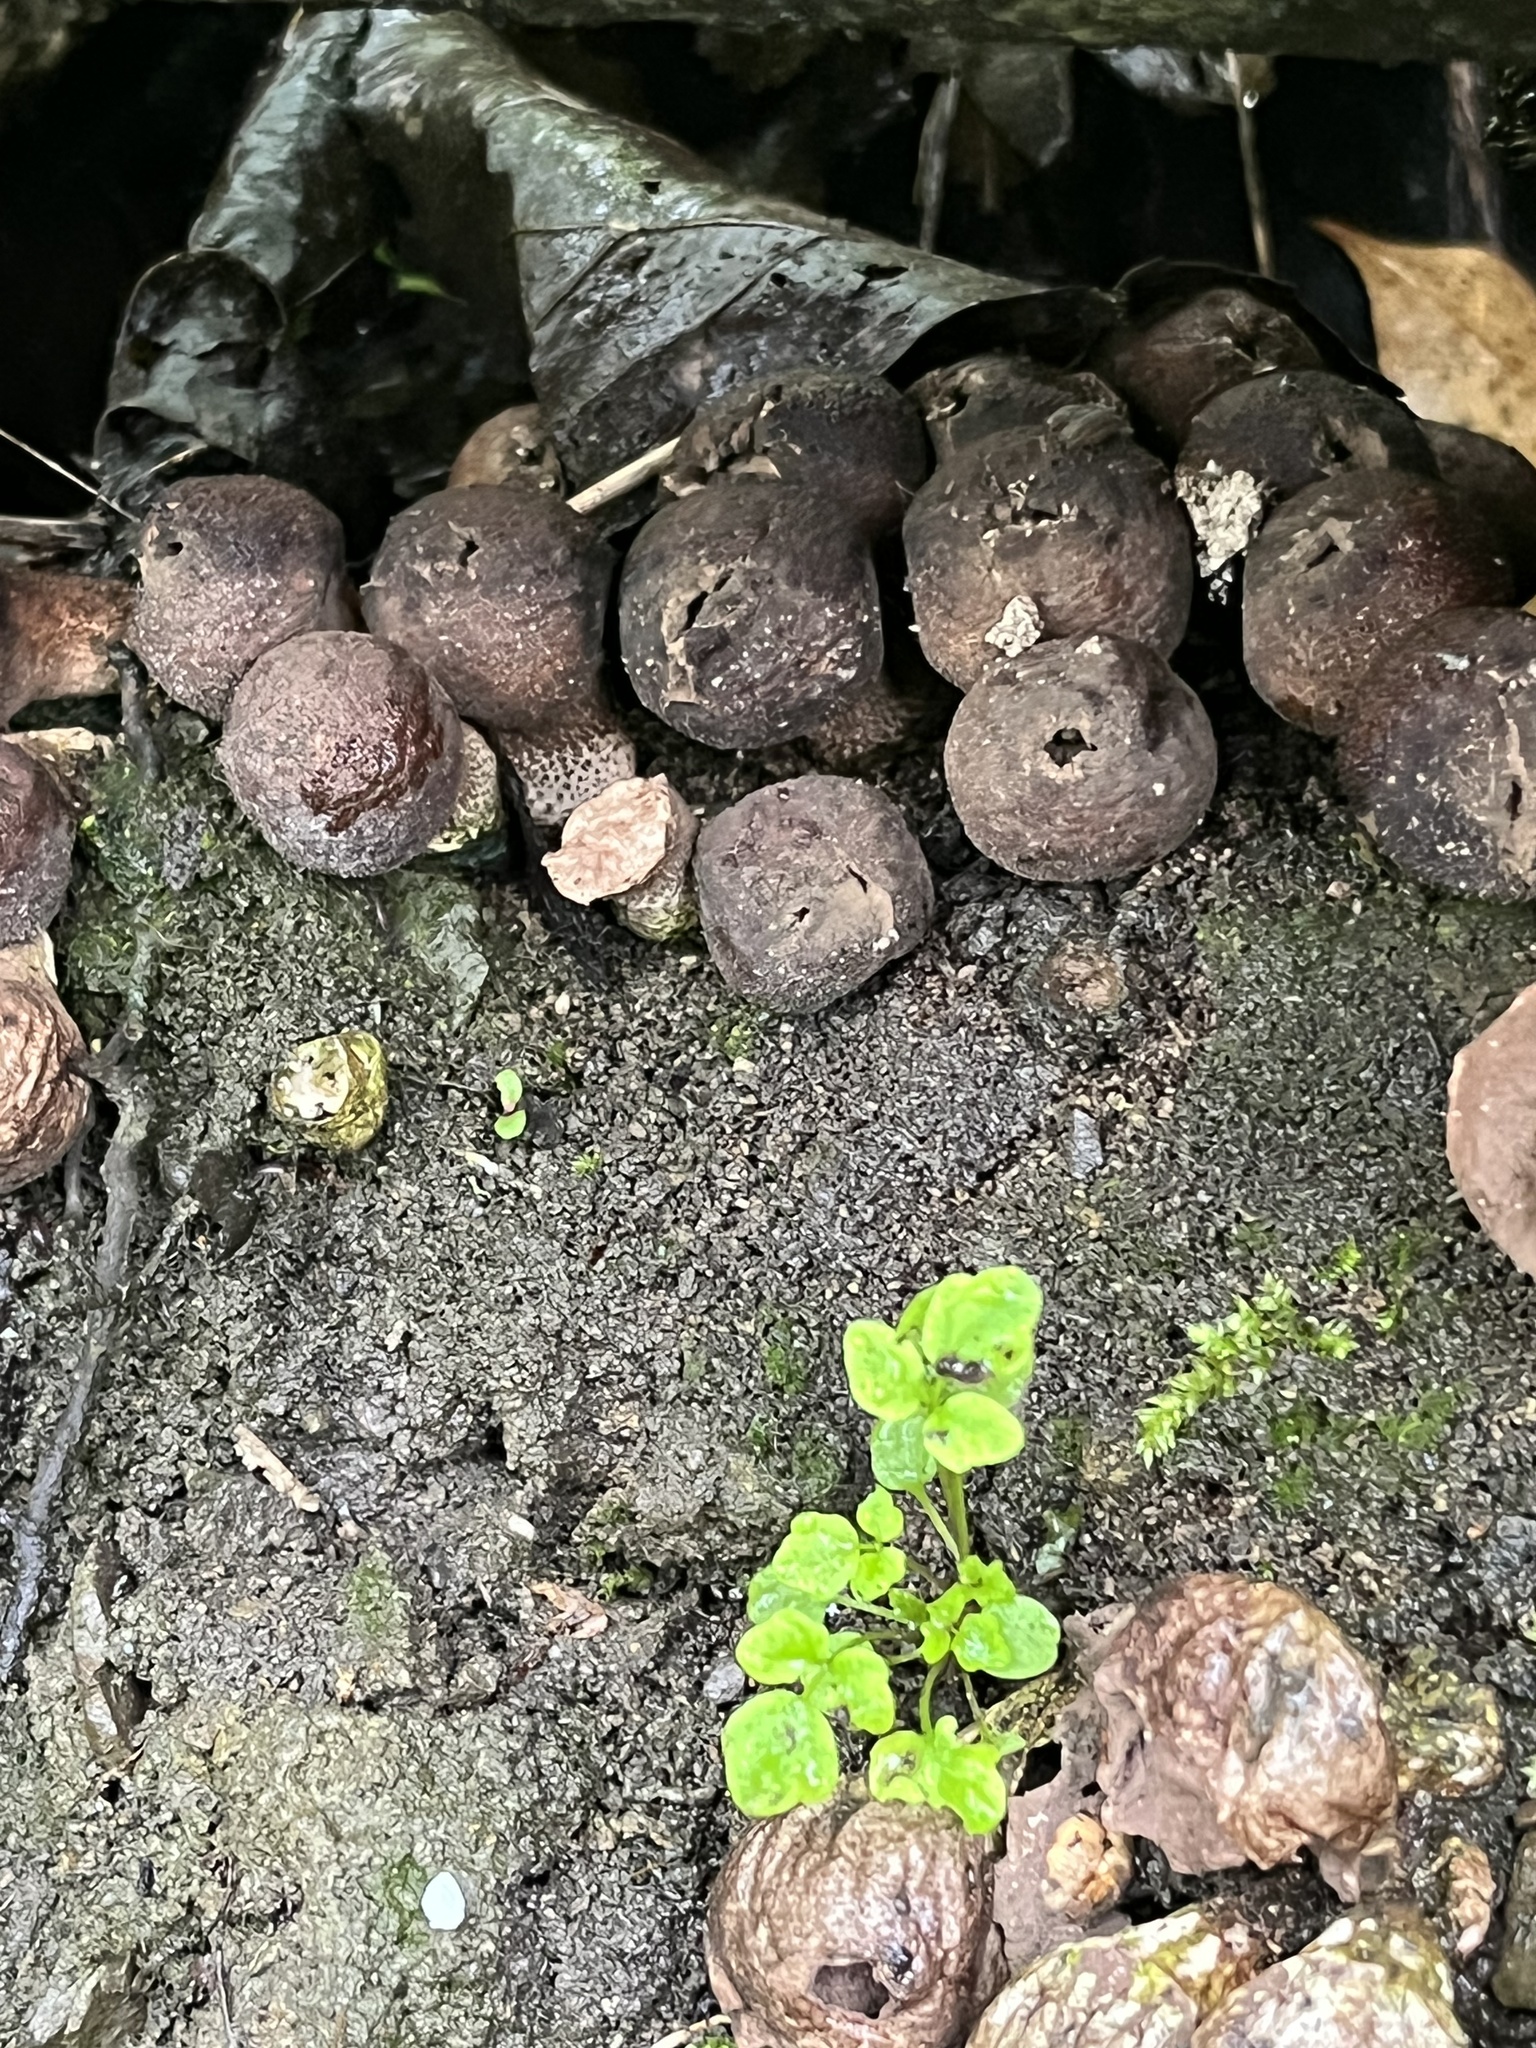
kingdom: Fungi
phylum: Basidiomycota
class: Agaricomycetes
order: Agaricales
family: Lycoperdaceae
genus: Apioperdon
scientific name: Apioperdon pyriforme
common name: Pear-shaped puffball
